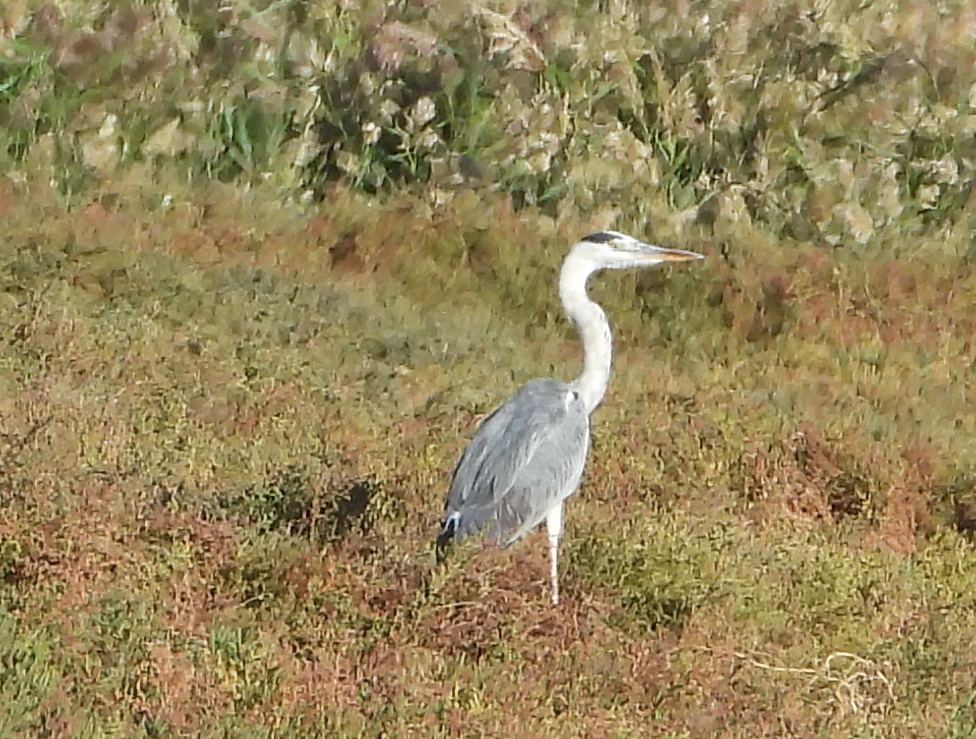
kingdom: Animalia
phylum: Chordata
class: Aves
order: Pelecaniformes
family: Ardeidae
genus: Ardea
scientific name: Ardea cinerea
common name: Grey heron
